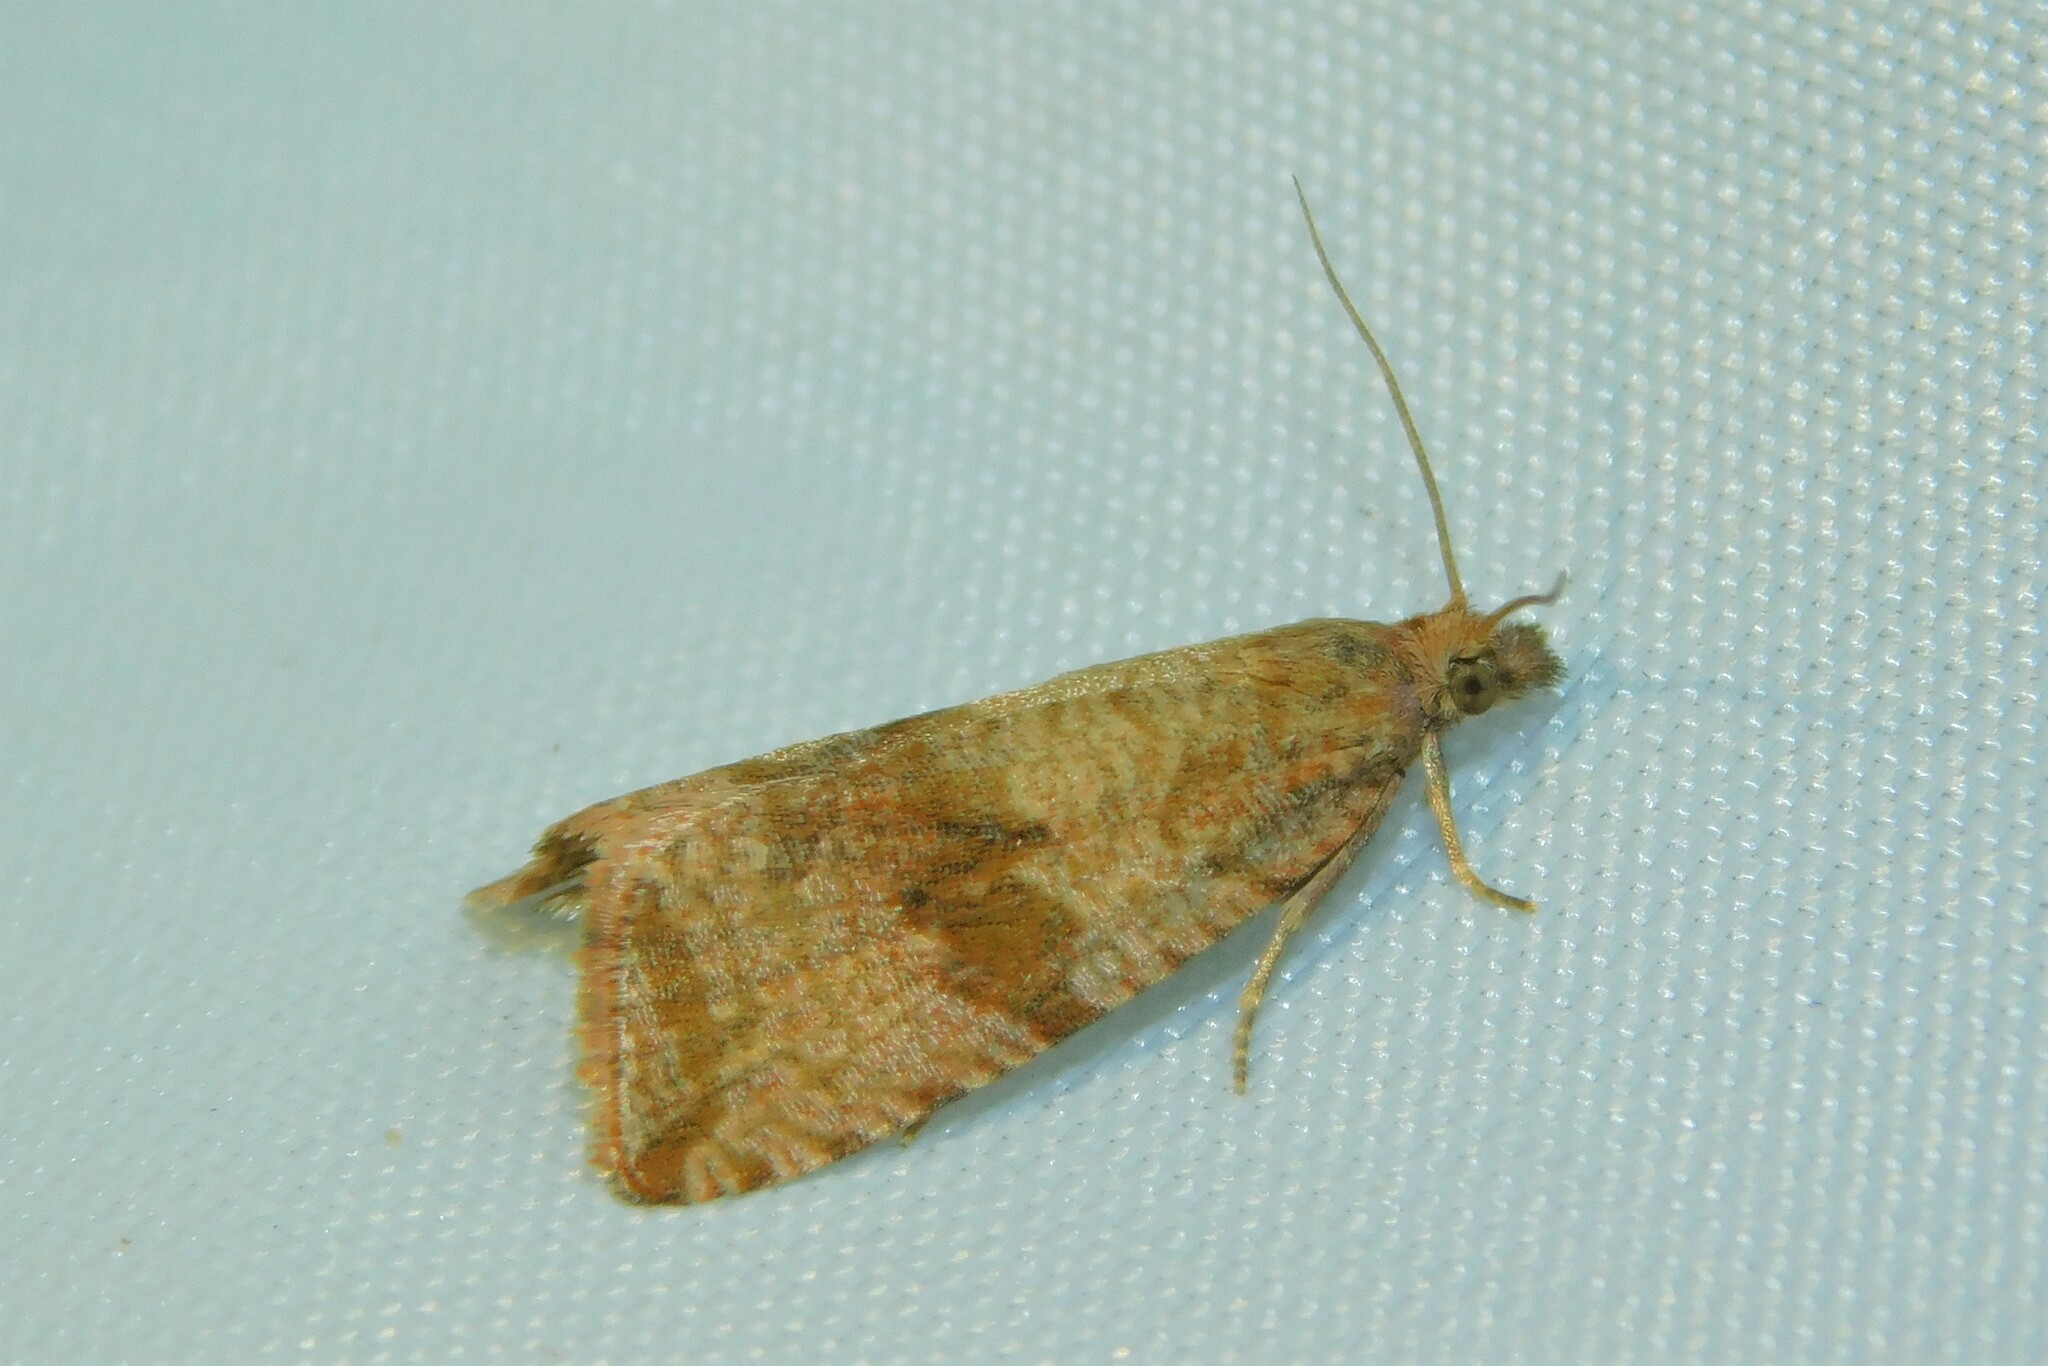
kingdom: Animalia
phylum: Arthropoda
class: Insecta
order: Lepidoptera
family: Tortricidae
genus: Celypha
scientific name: Celypha striana
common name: Barred marble
